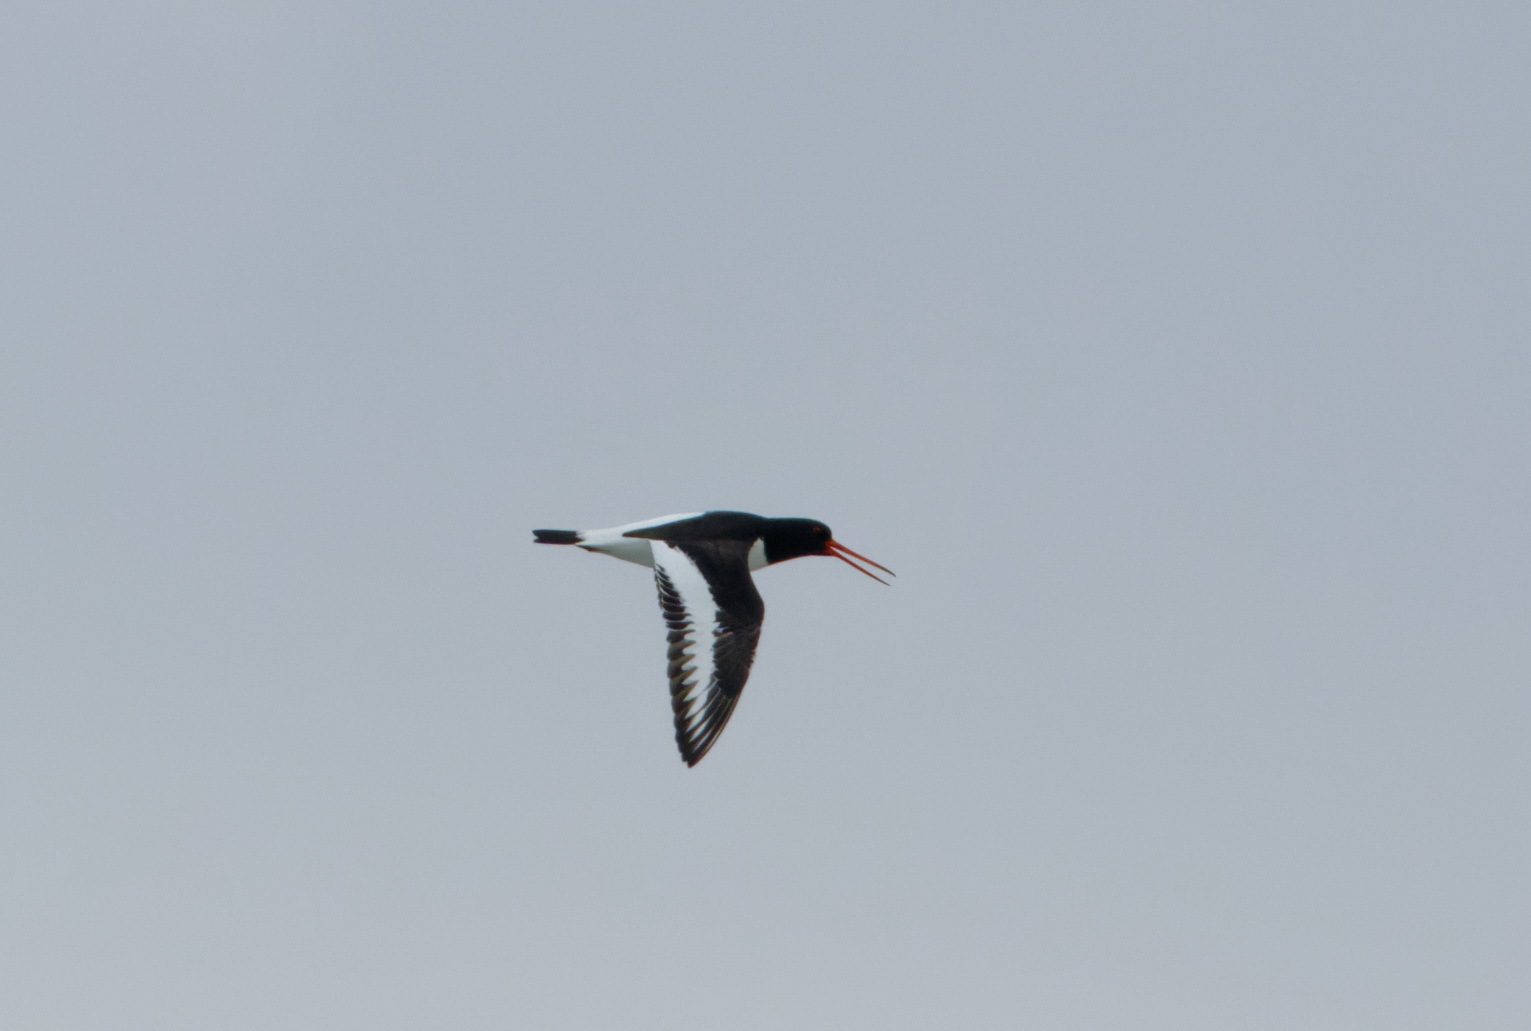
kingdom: Animalia
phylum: Chordata
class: Aves
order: Charadriiformes
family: Haematopodidae
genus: Haematopus
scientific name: Haematopus ostralegus
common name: Eurasian oystercatcher
